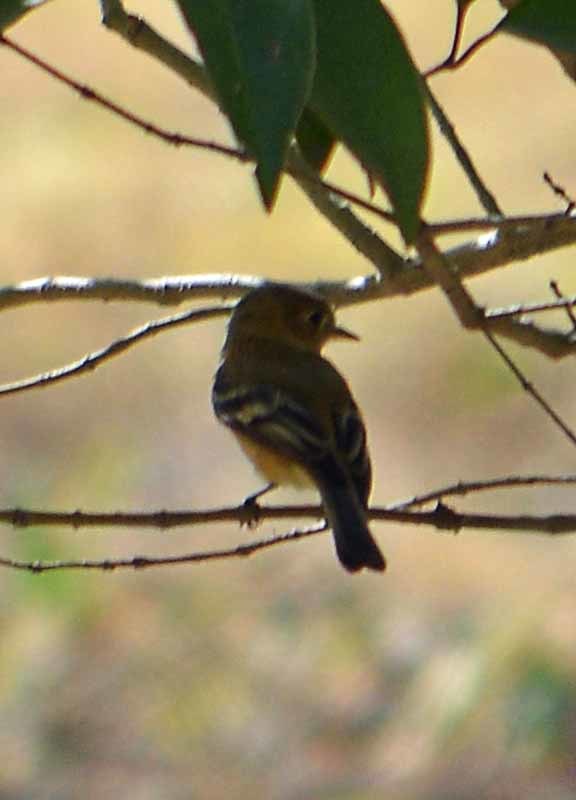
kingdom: Animalia
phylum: Chordata
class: Aves
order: Passeriformes
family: Tyrannidae
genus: Empidonax
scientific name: Empidonax fulvifrons
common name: Buff-breasted flycatcher
